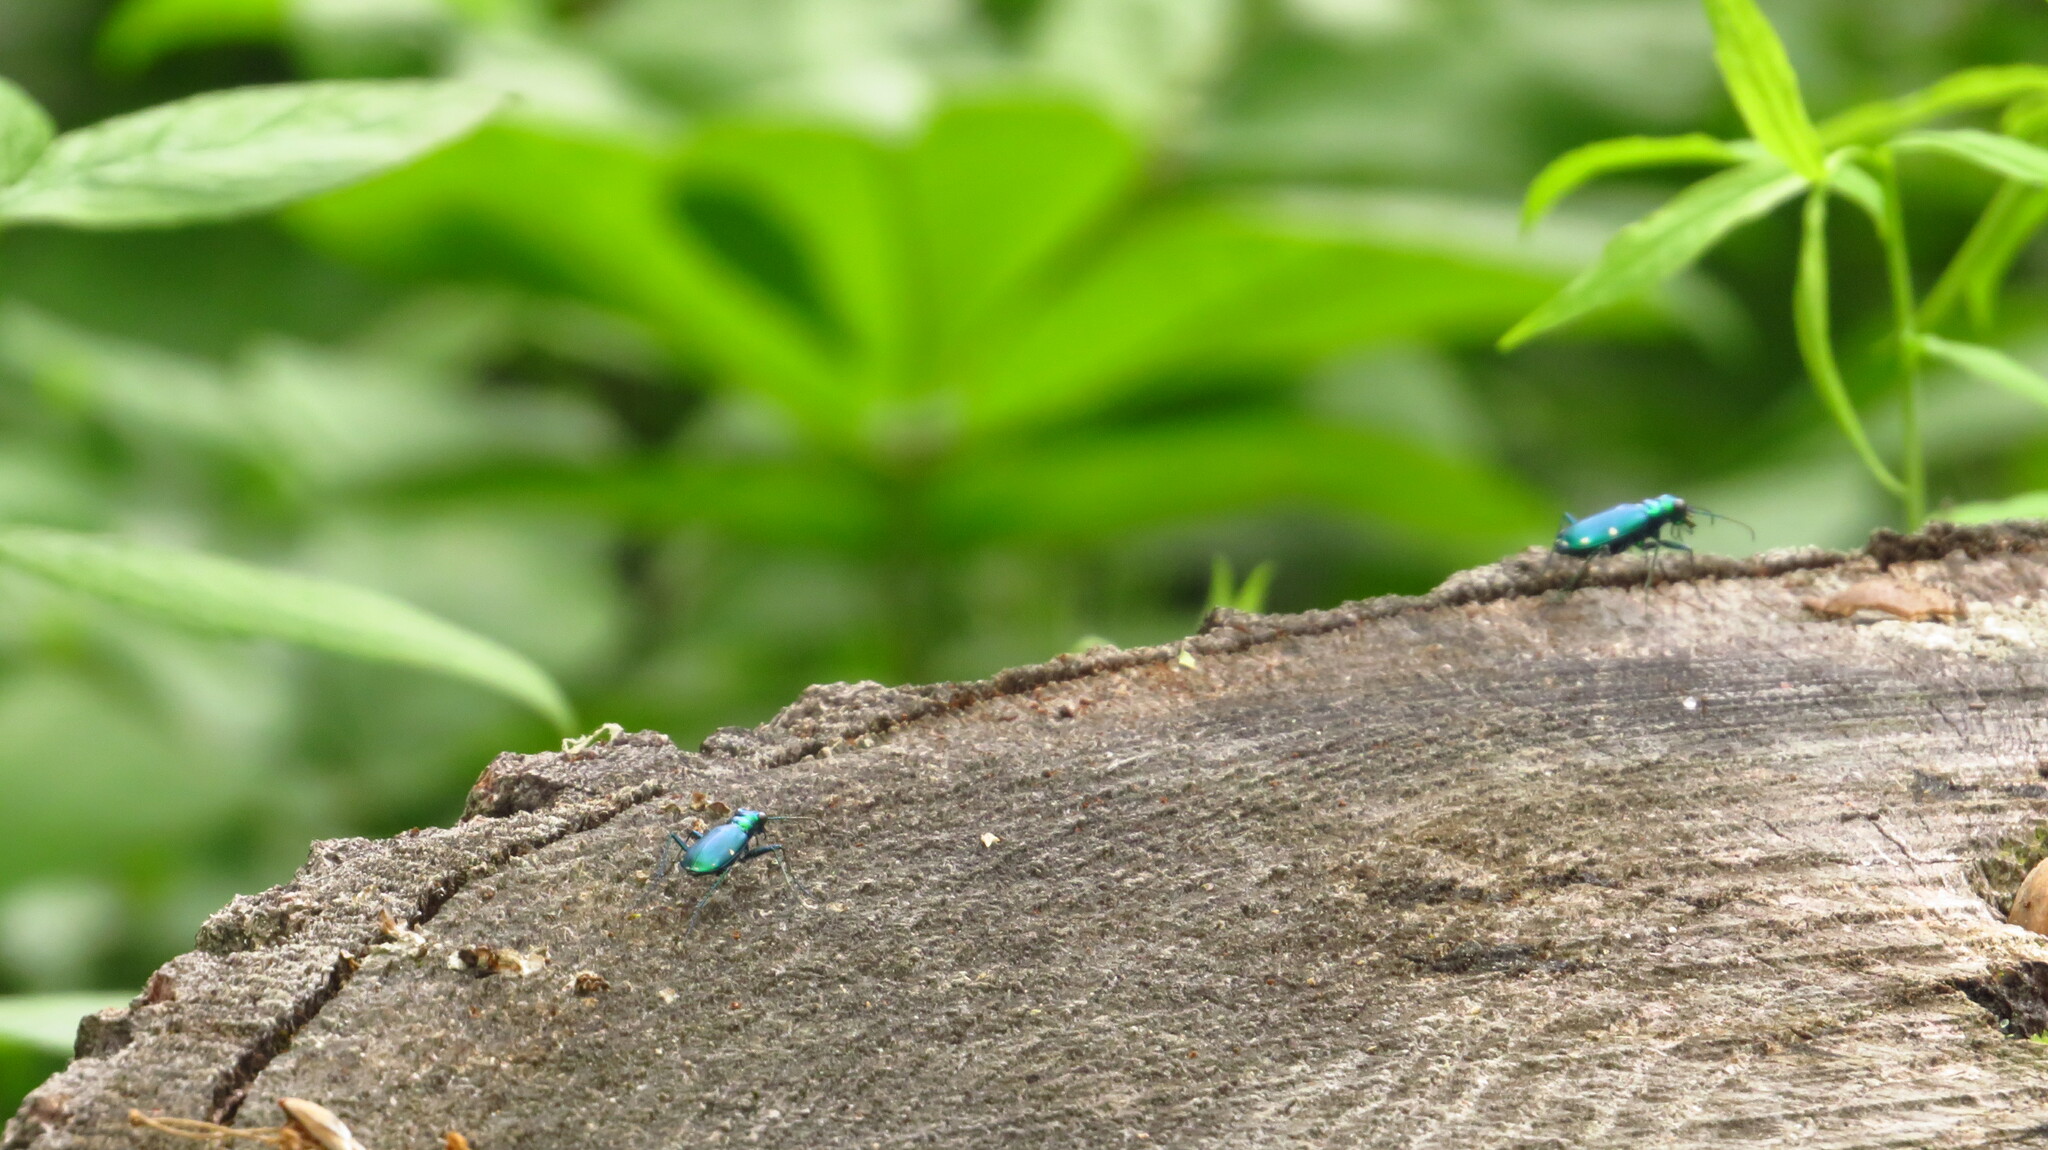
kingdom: Animalia
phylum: Arthropoda
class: Insecta
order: Coleoptera
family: Carabidae
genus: Cicindela
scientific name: Cicindela sexguttata
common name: Six-spotted tiger beetle
